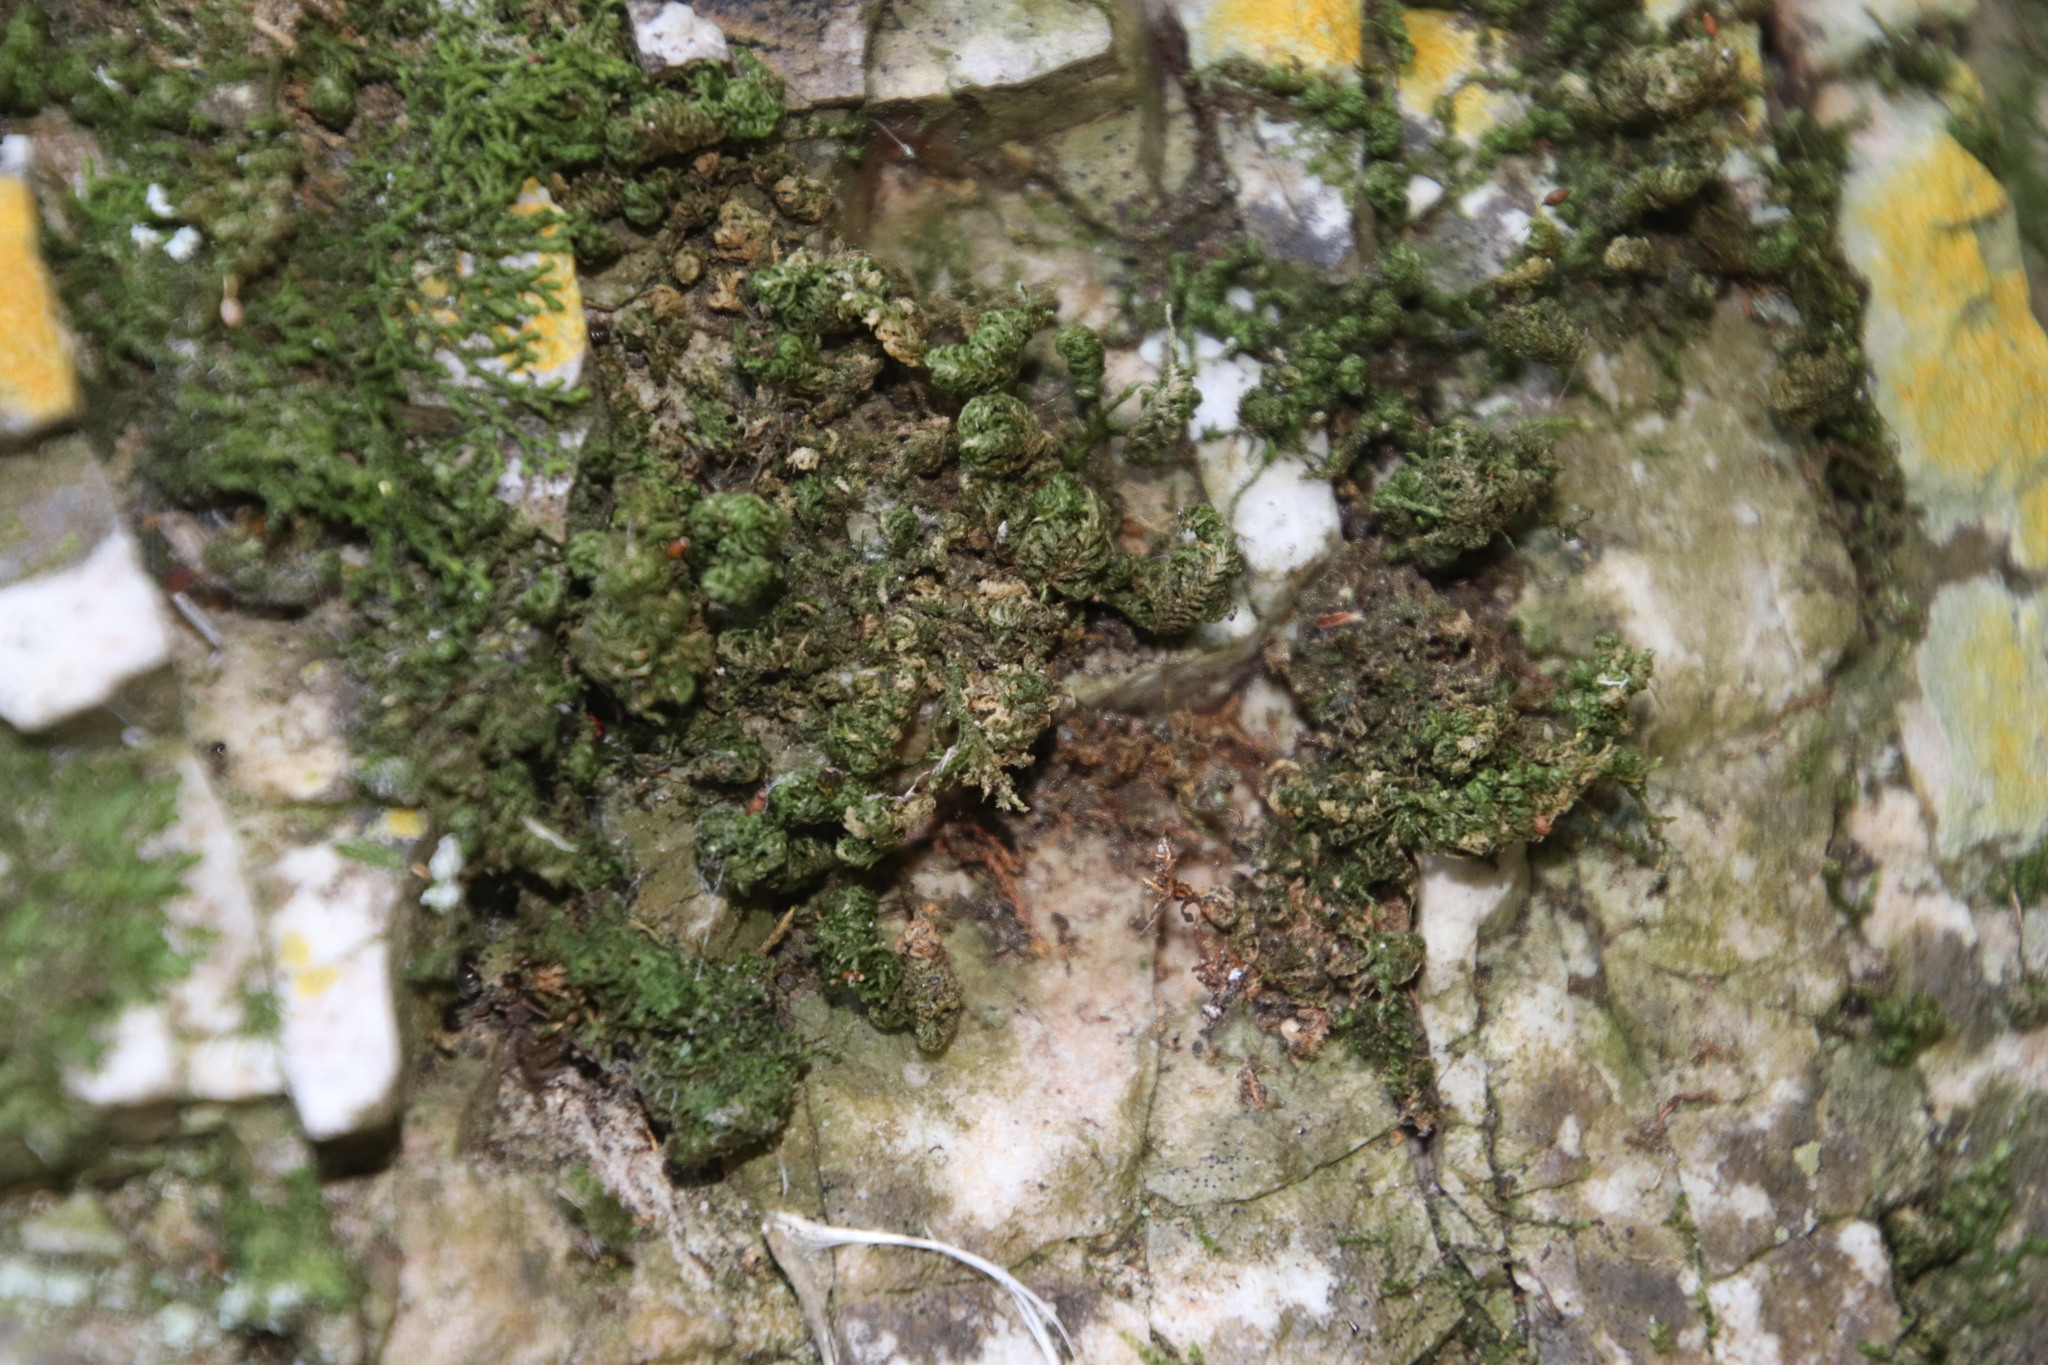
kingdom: Plantae
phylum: Bryophyta
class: Bryopsida
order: Hypnales
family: Neckeraceae
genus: Leptodon
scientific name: Leptodon smithii
